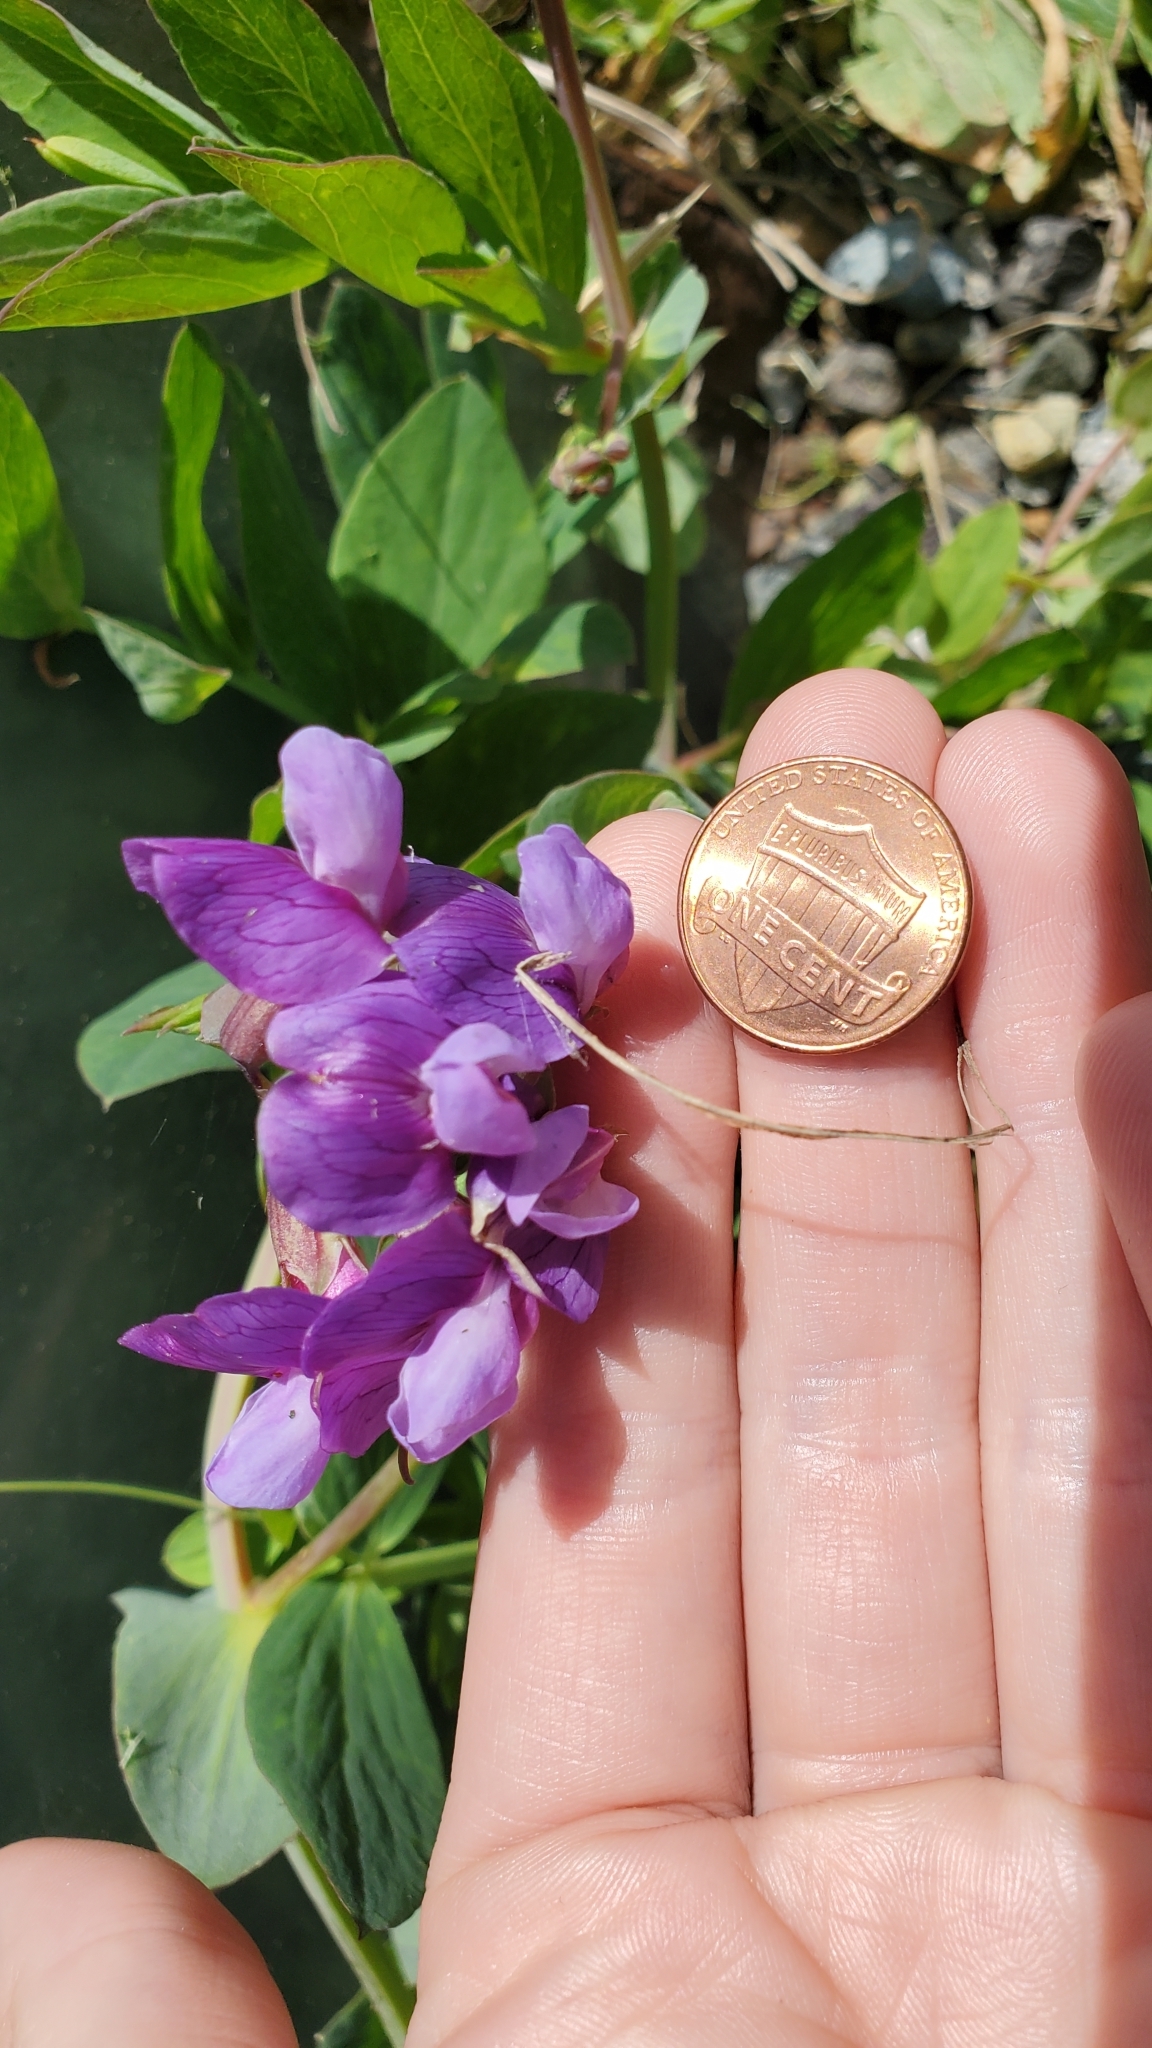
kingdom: Plantae
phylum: Tracheophyta
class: Magnoliopsida
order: Fabales
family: Fabaceae
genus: Lathyrus
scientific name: Lathyrus japonicus
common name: Sea pea
